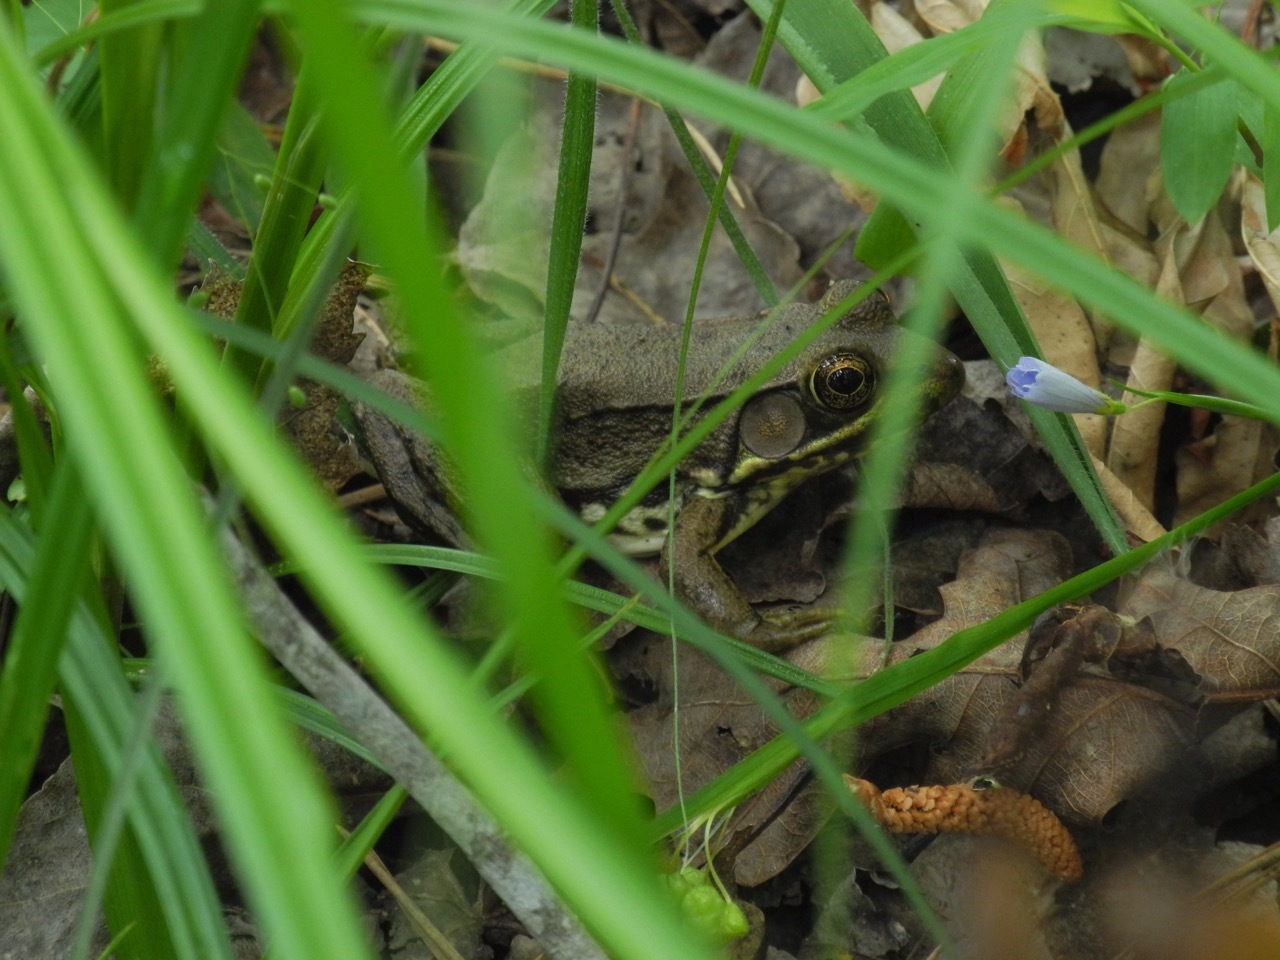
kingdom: Animalia
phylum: Chordata
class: Amphibia
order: Anura
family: Ranidae
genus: Lithobates
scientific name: Lithobates clamitans
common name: Green frog
